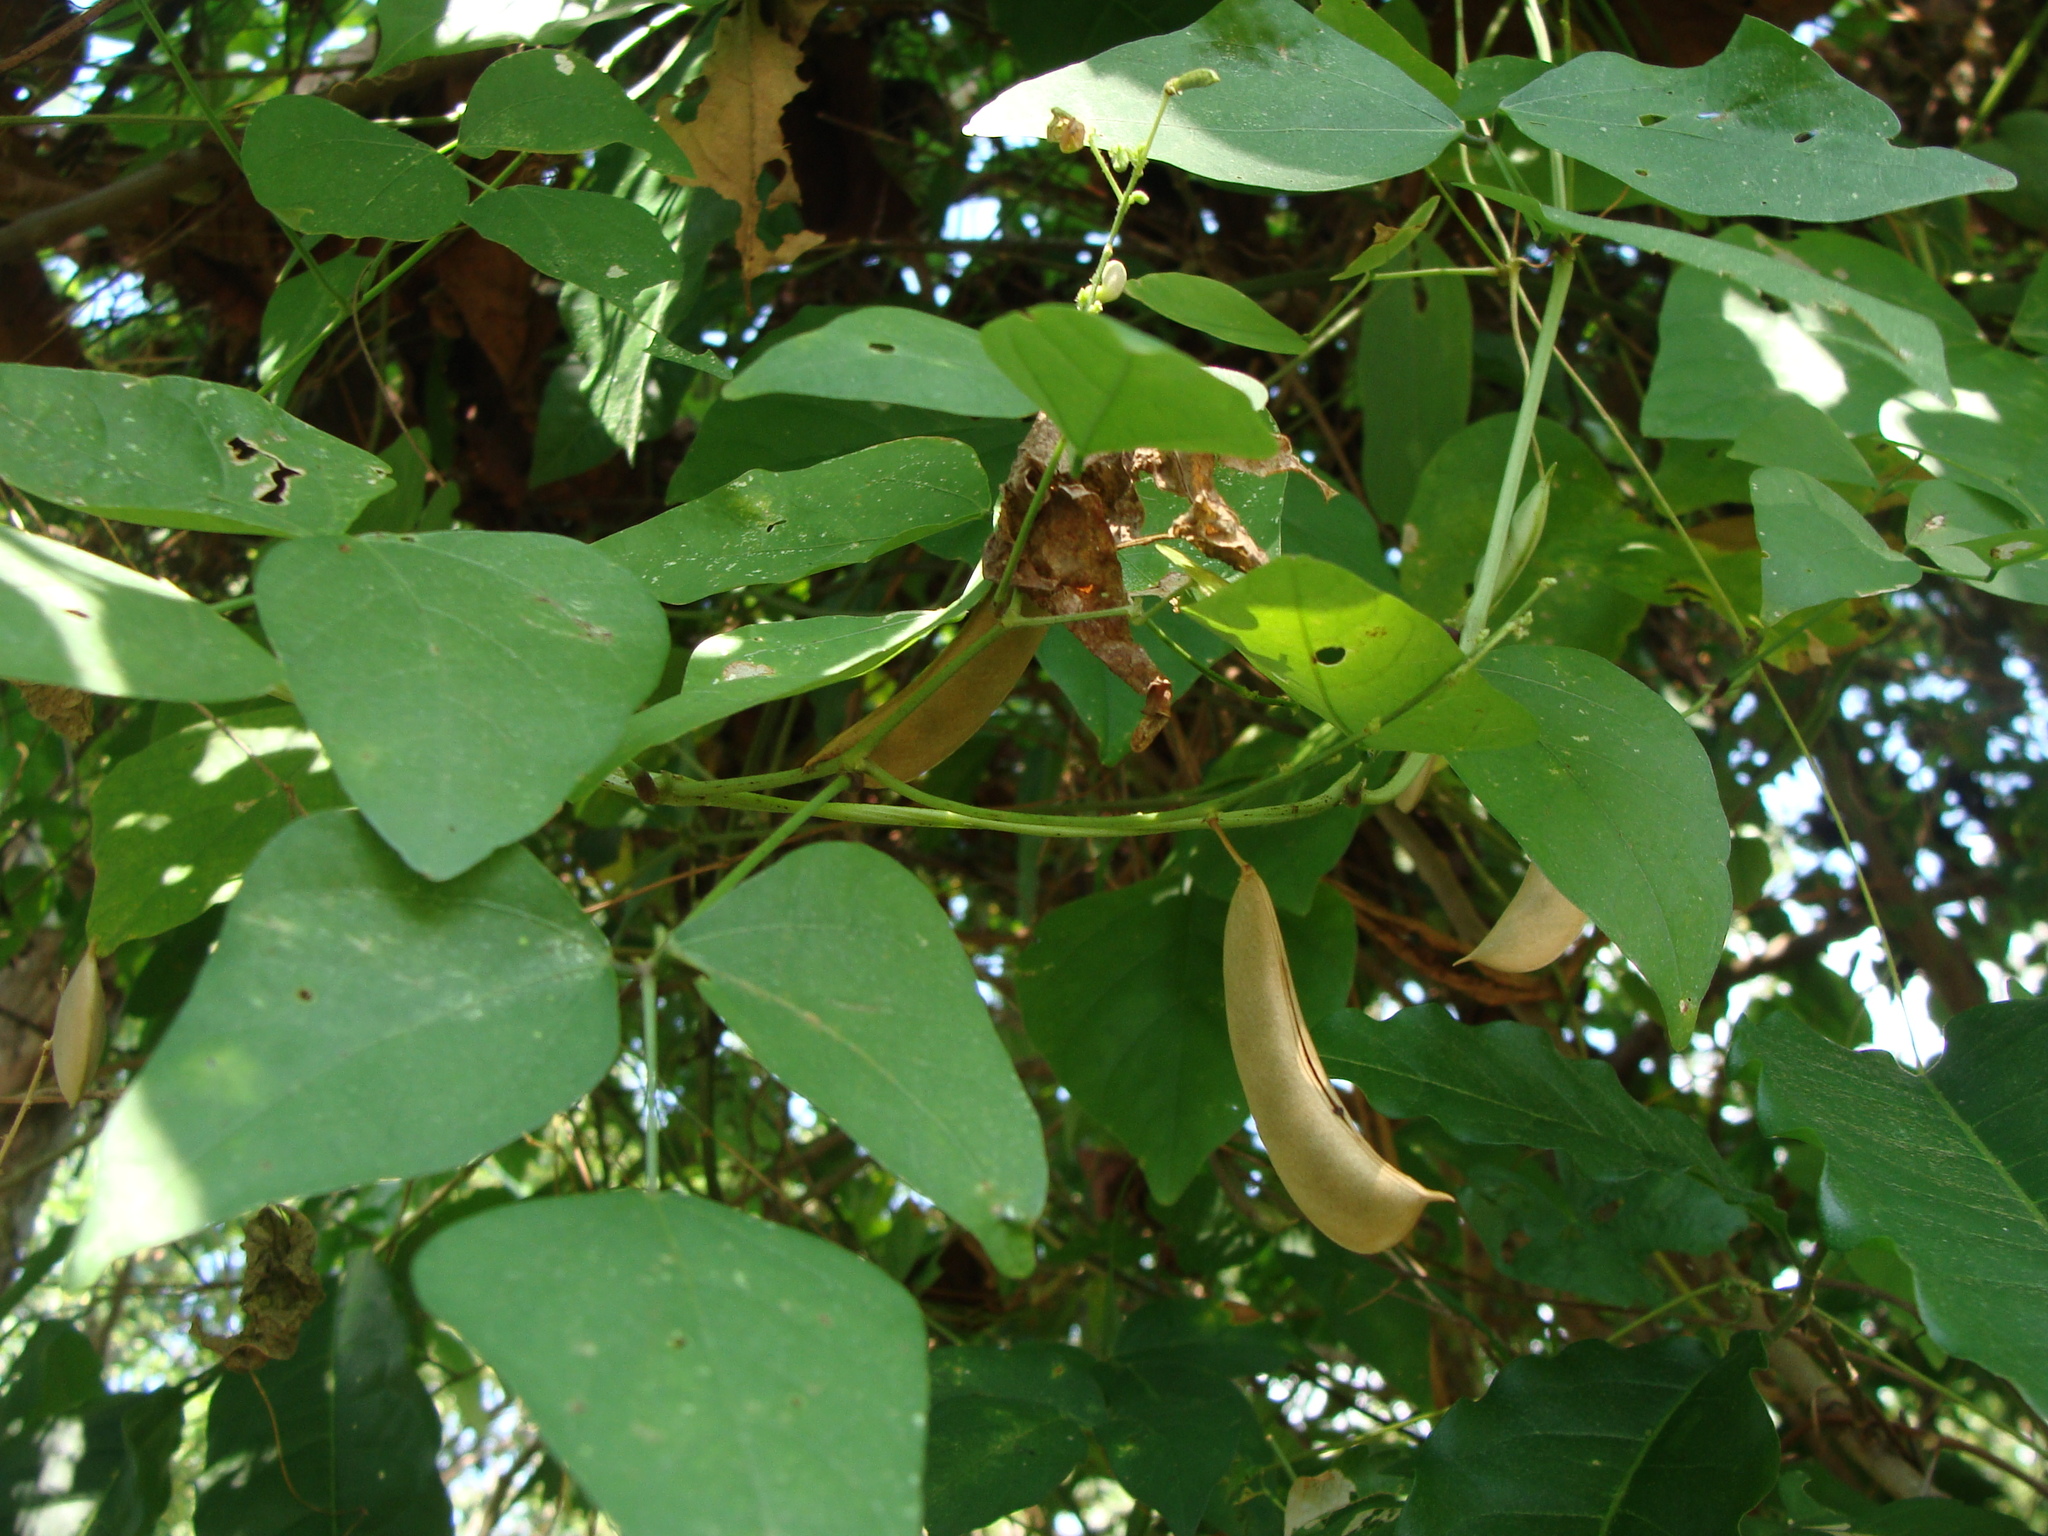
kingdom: Plantae
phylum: Tracheophyta
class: Magnoliopsida
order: Fabales
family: Fabaceae
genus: Phaseolus
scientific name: Phaseolus lunatus
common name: Sieva bean
